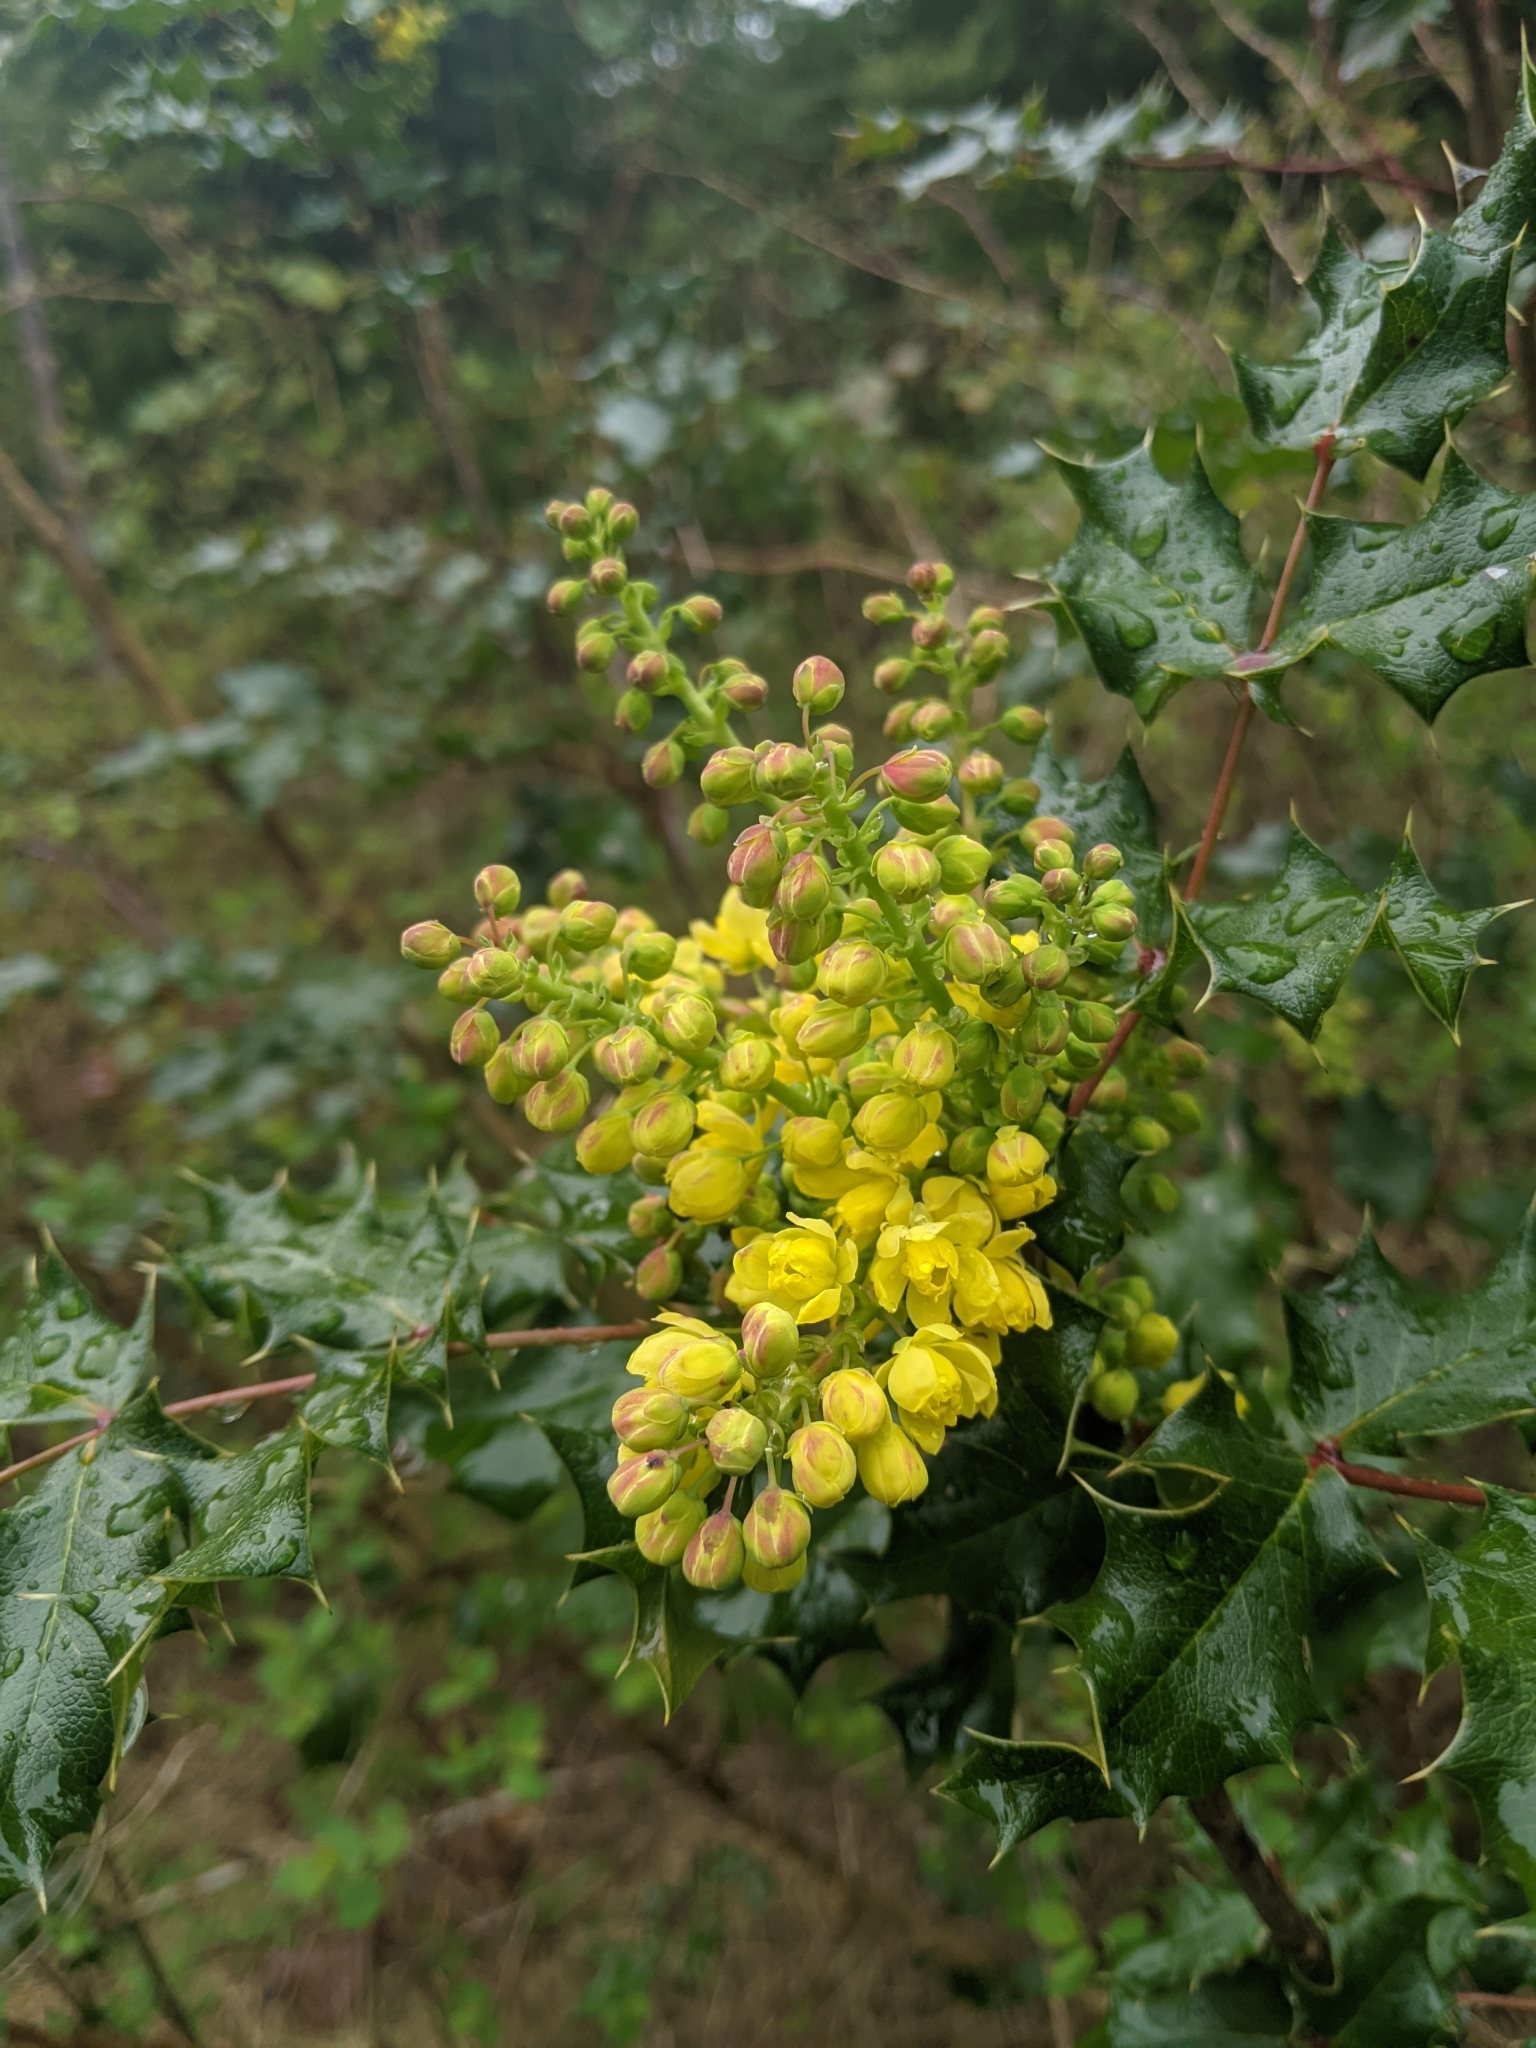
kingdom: Plantae
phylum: Tracheophyta
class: Magnoliopsida
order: Ranunculales
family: Berberidaceae
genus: Mahonia
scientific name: Mahonia aquifolium
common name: Oregon-grape
